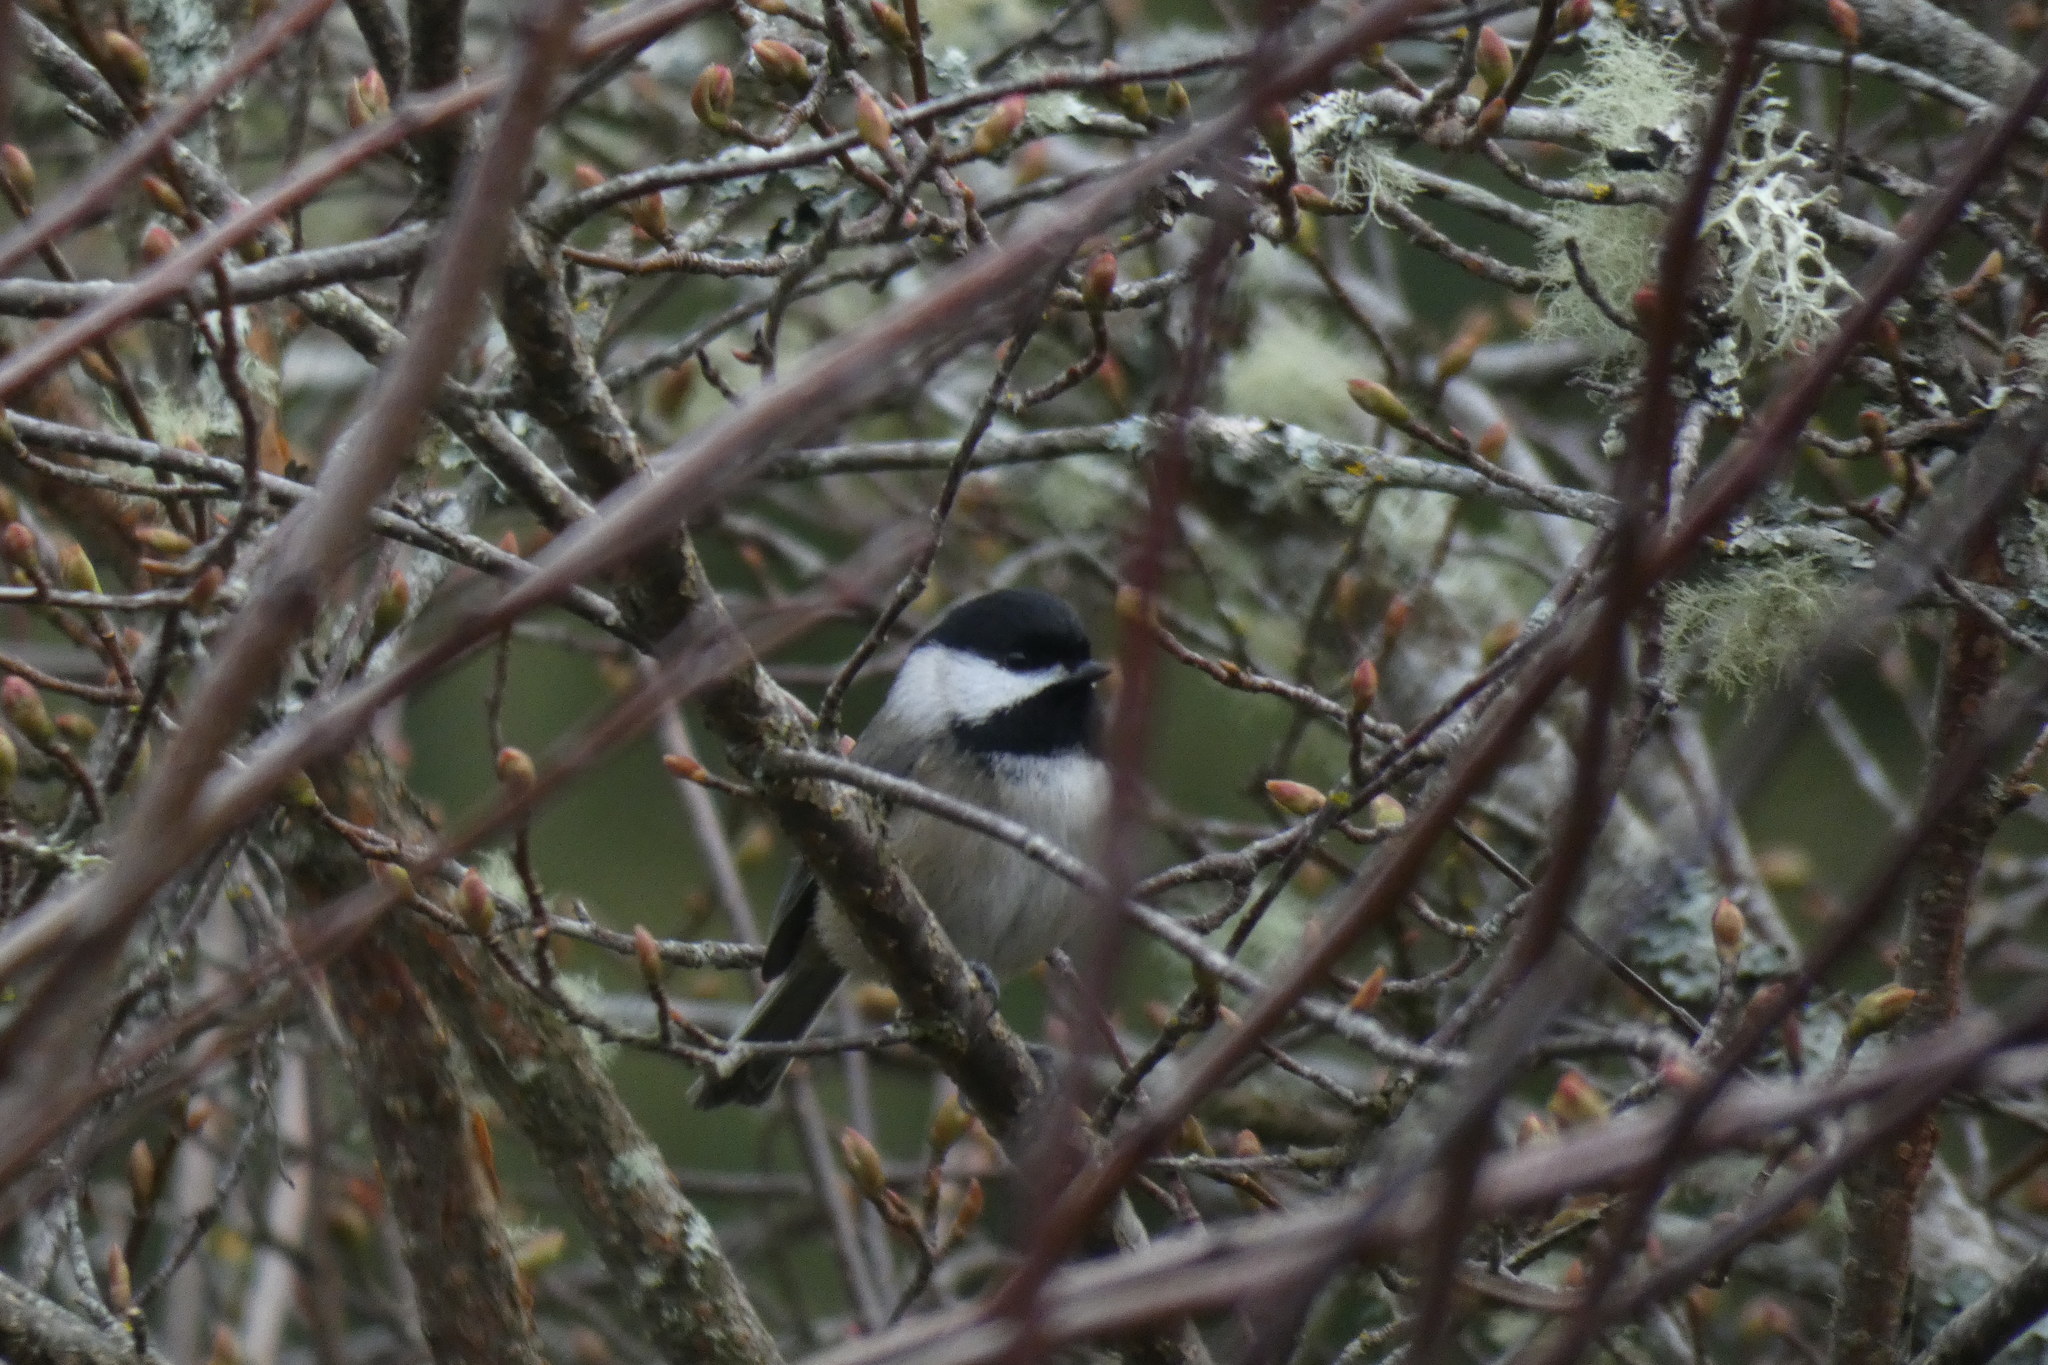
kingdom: Animalia
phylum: Chordata
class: Aves
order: Passeriformes
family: Paridae
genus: Poecile
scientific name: Poecile atricapillus
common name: Black-capped chickadee
